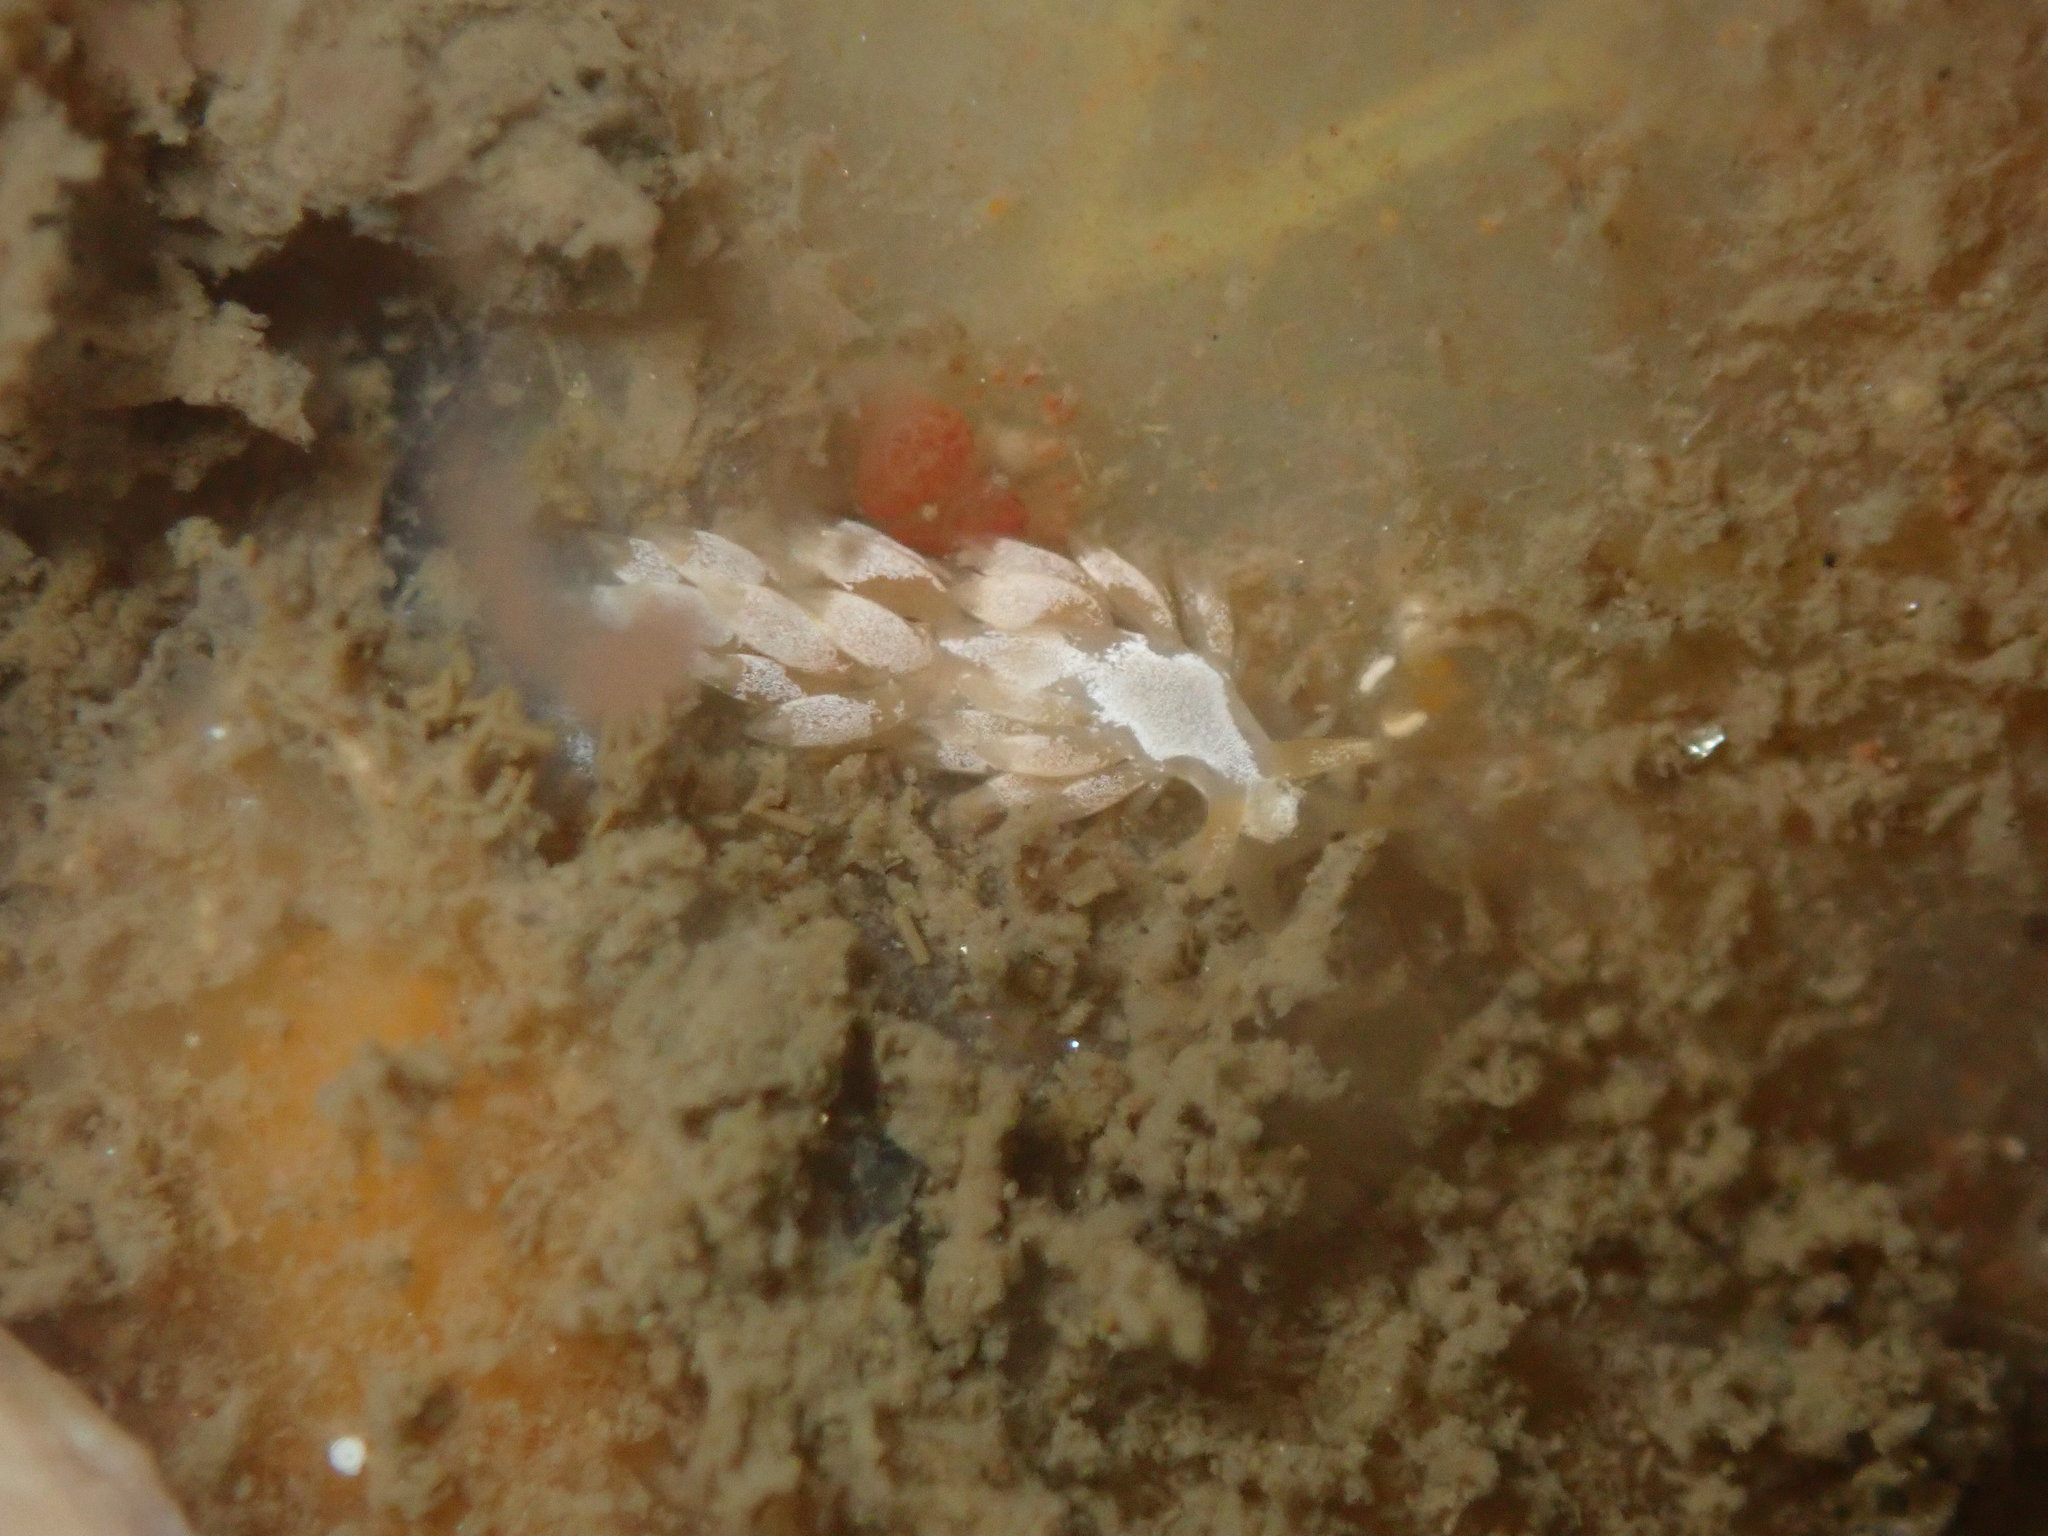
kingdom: Animalia
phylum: Mollusca
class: Gastropoda
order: Nudibranchia
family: Trinchesiidae
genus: Trinchesia
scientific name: Trinchesia albocrusta
